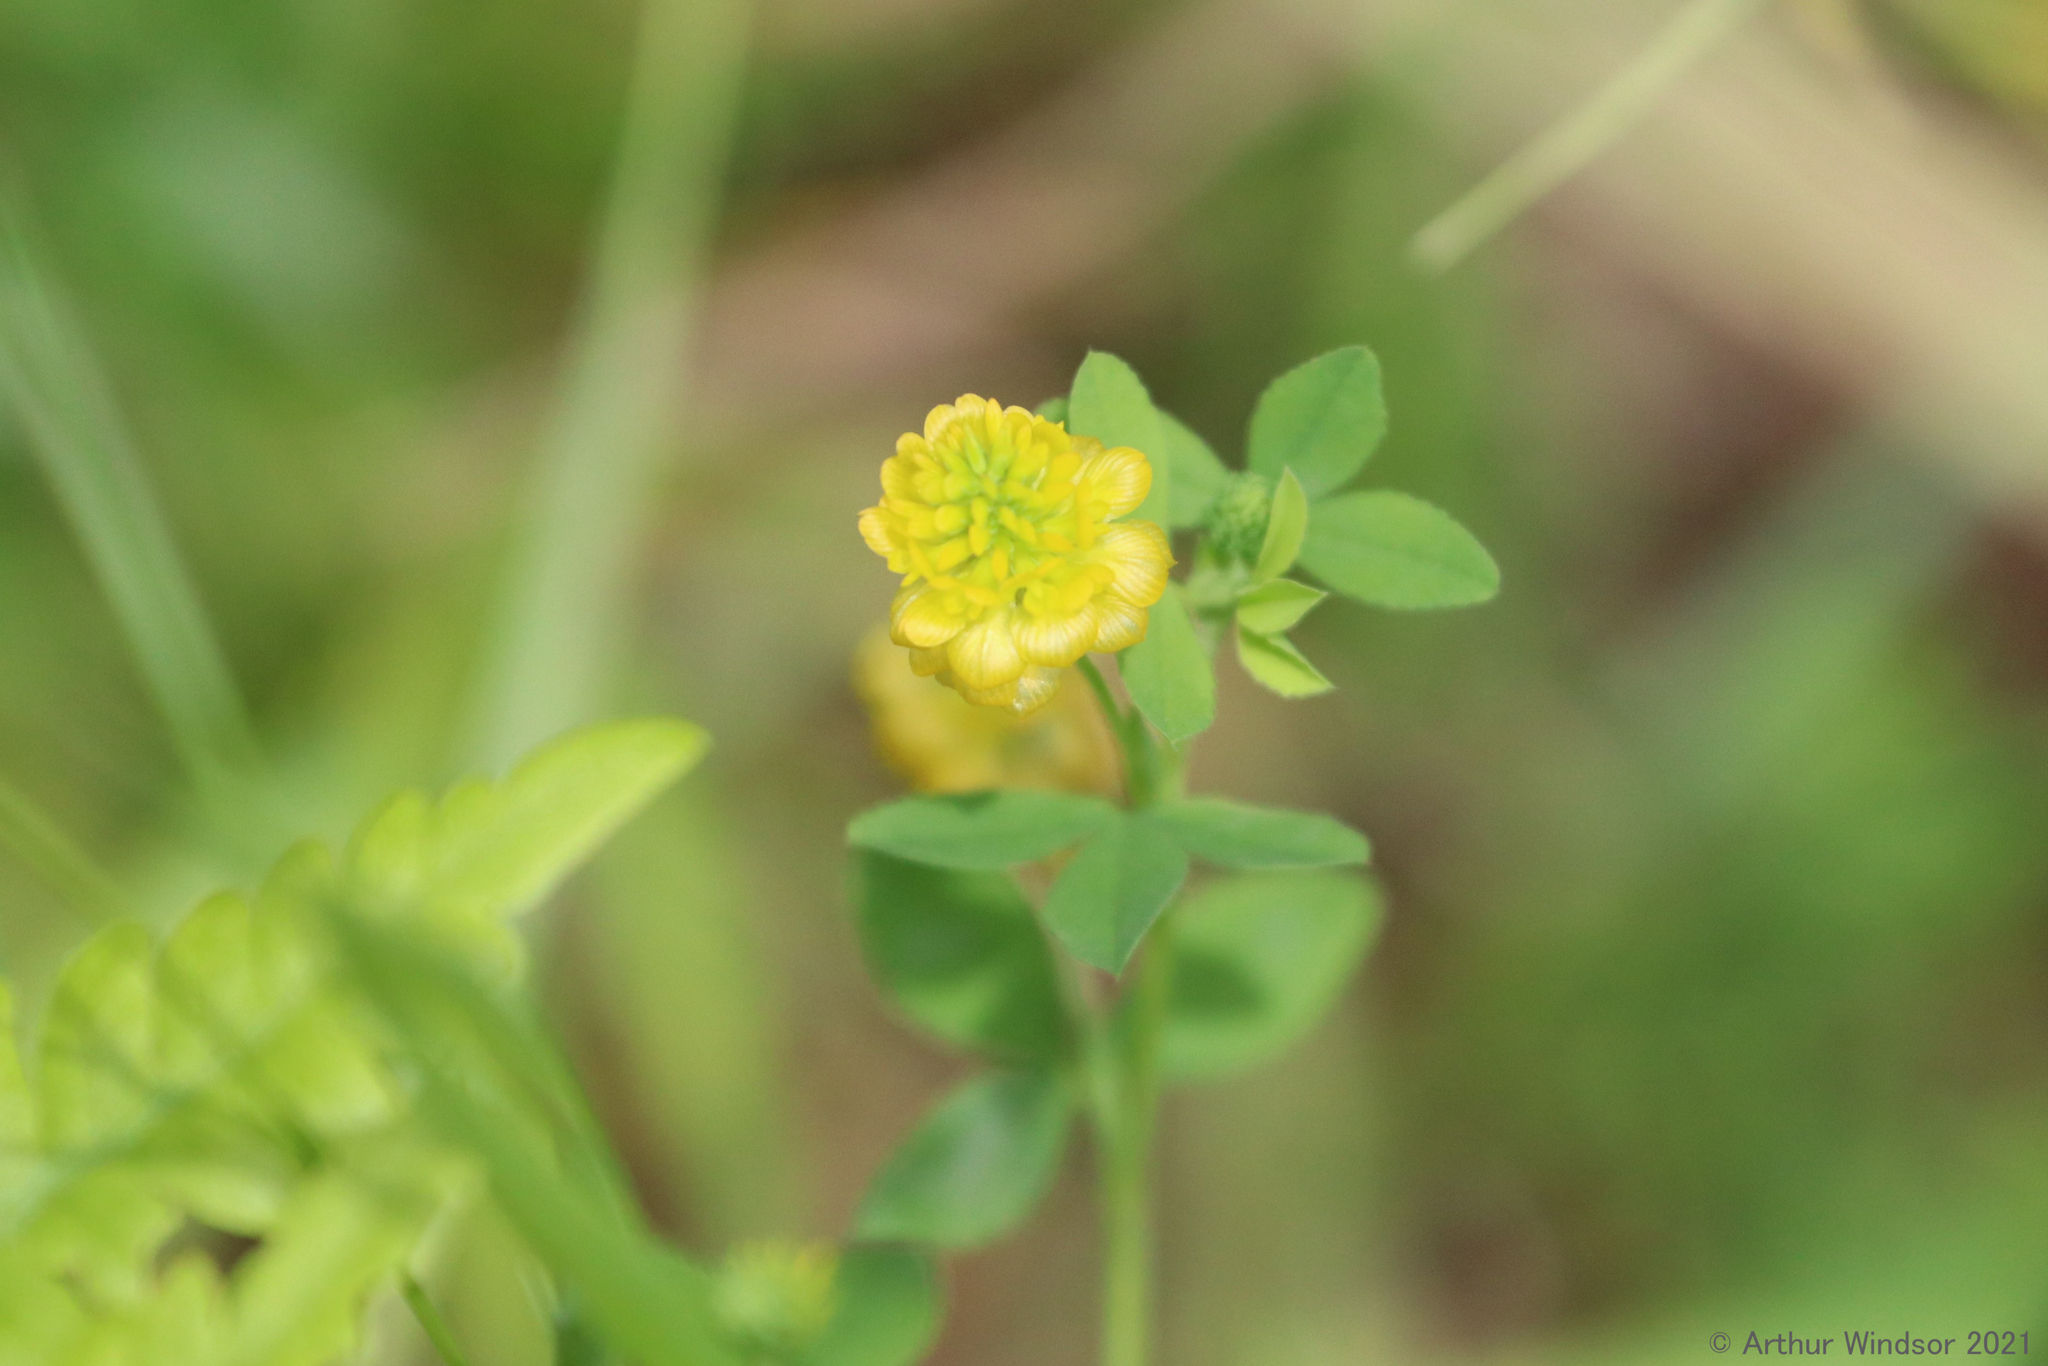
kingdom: Plantae
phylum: Tracheophyta
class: Magnoliopsida
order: Fabales
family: Fabaceae
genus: Trifolium
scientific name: Trifolium aureum
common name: Golden clover
